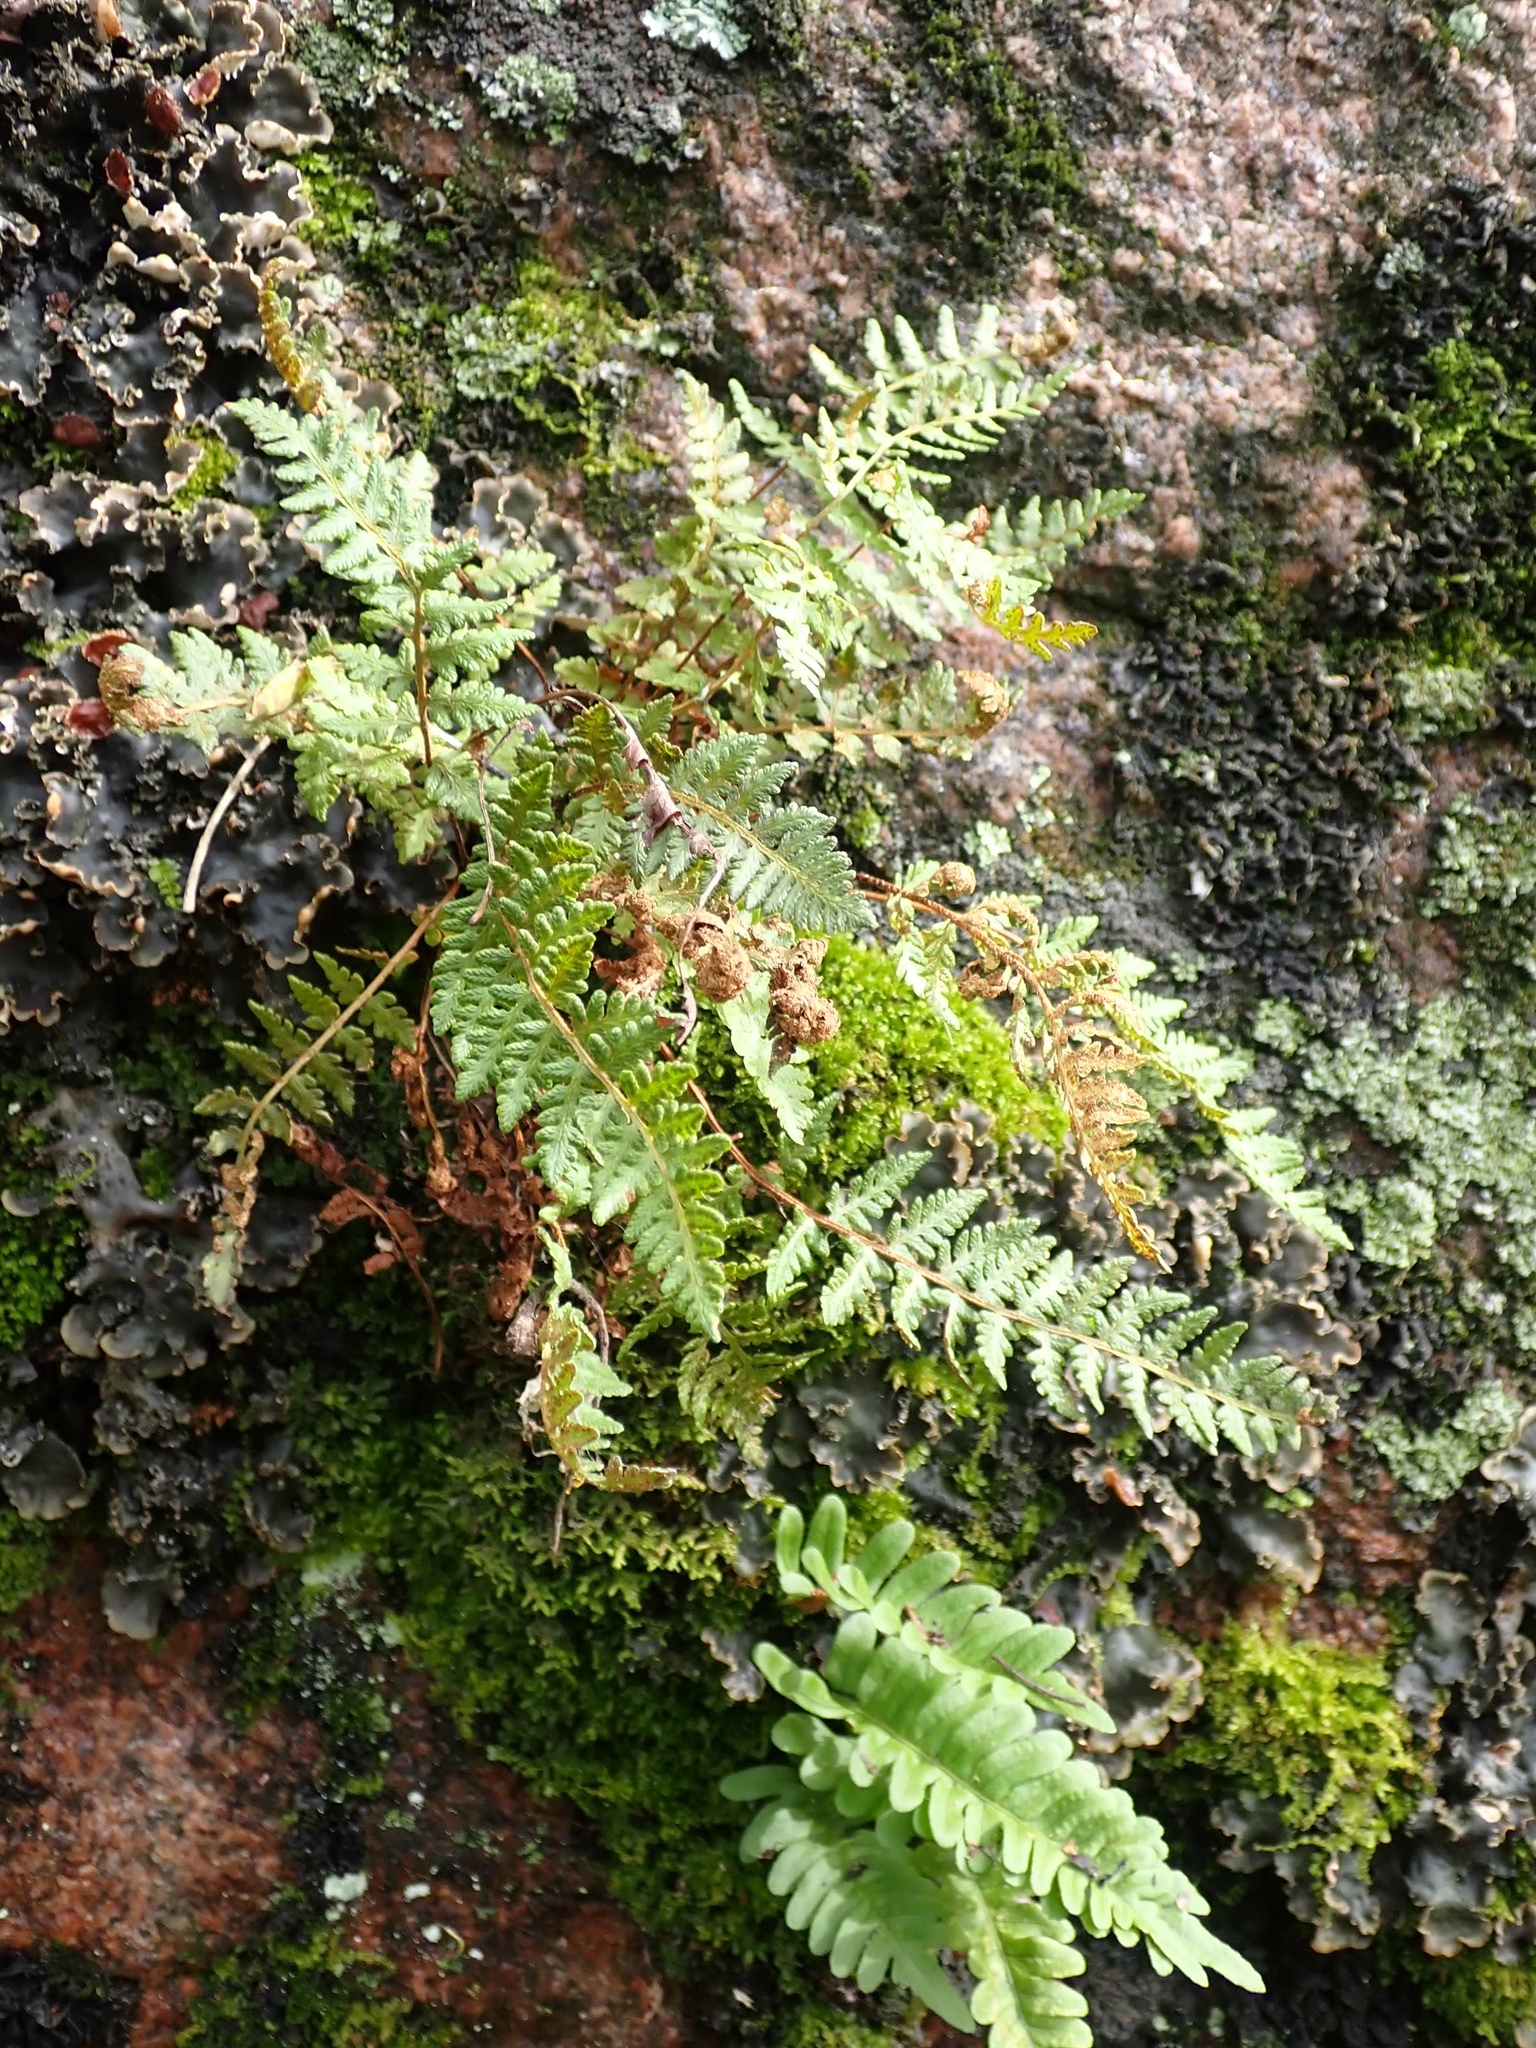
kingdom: Plantae
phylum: Tracheophyta
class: Polypodiopsida
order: Polypodiales
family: Woodsiaceae
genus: Woodsia
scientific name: Woodsia ilvensis
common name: Fragrant woodsia
